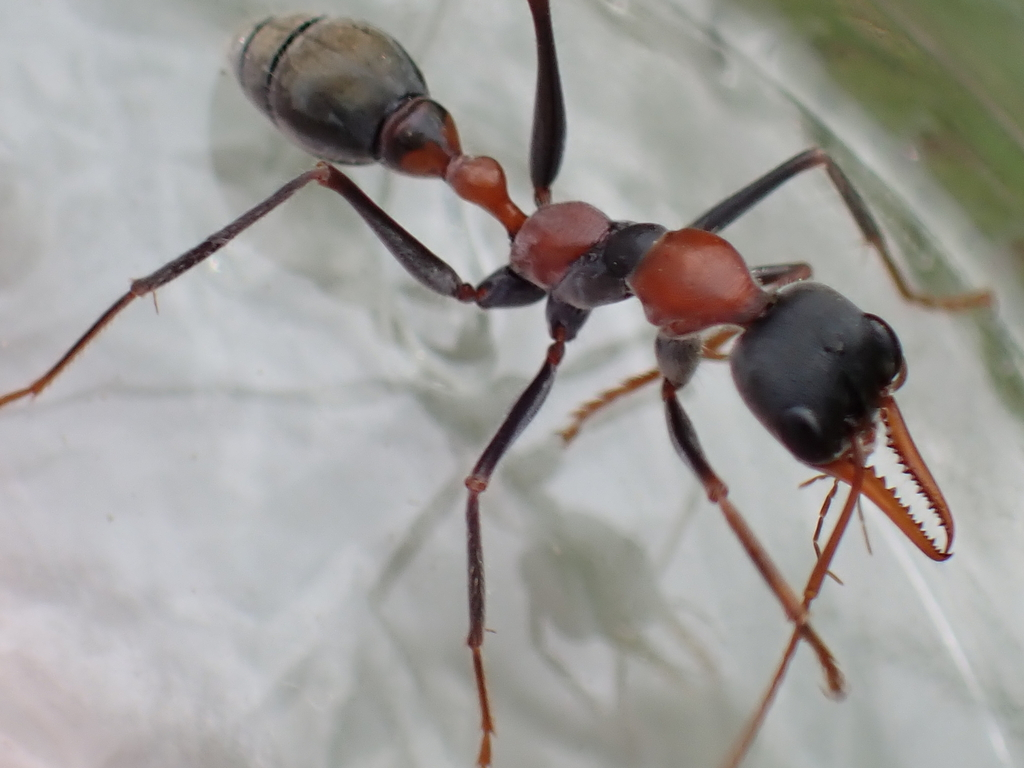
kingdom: Animalia
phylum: Arthropoda
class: Insecta
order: Hymenoptera
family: Formicidae
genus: Myrmecia
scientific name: Myrmecia nigrocincta
